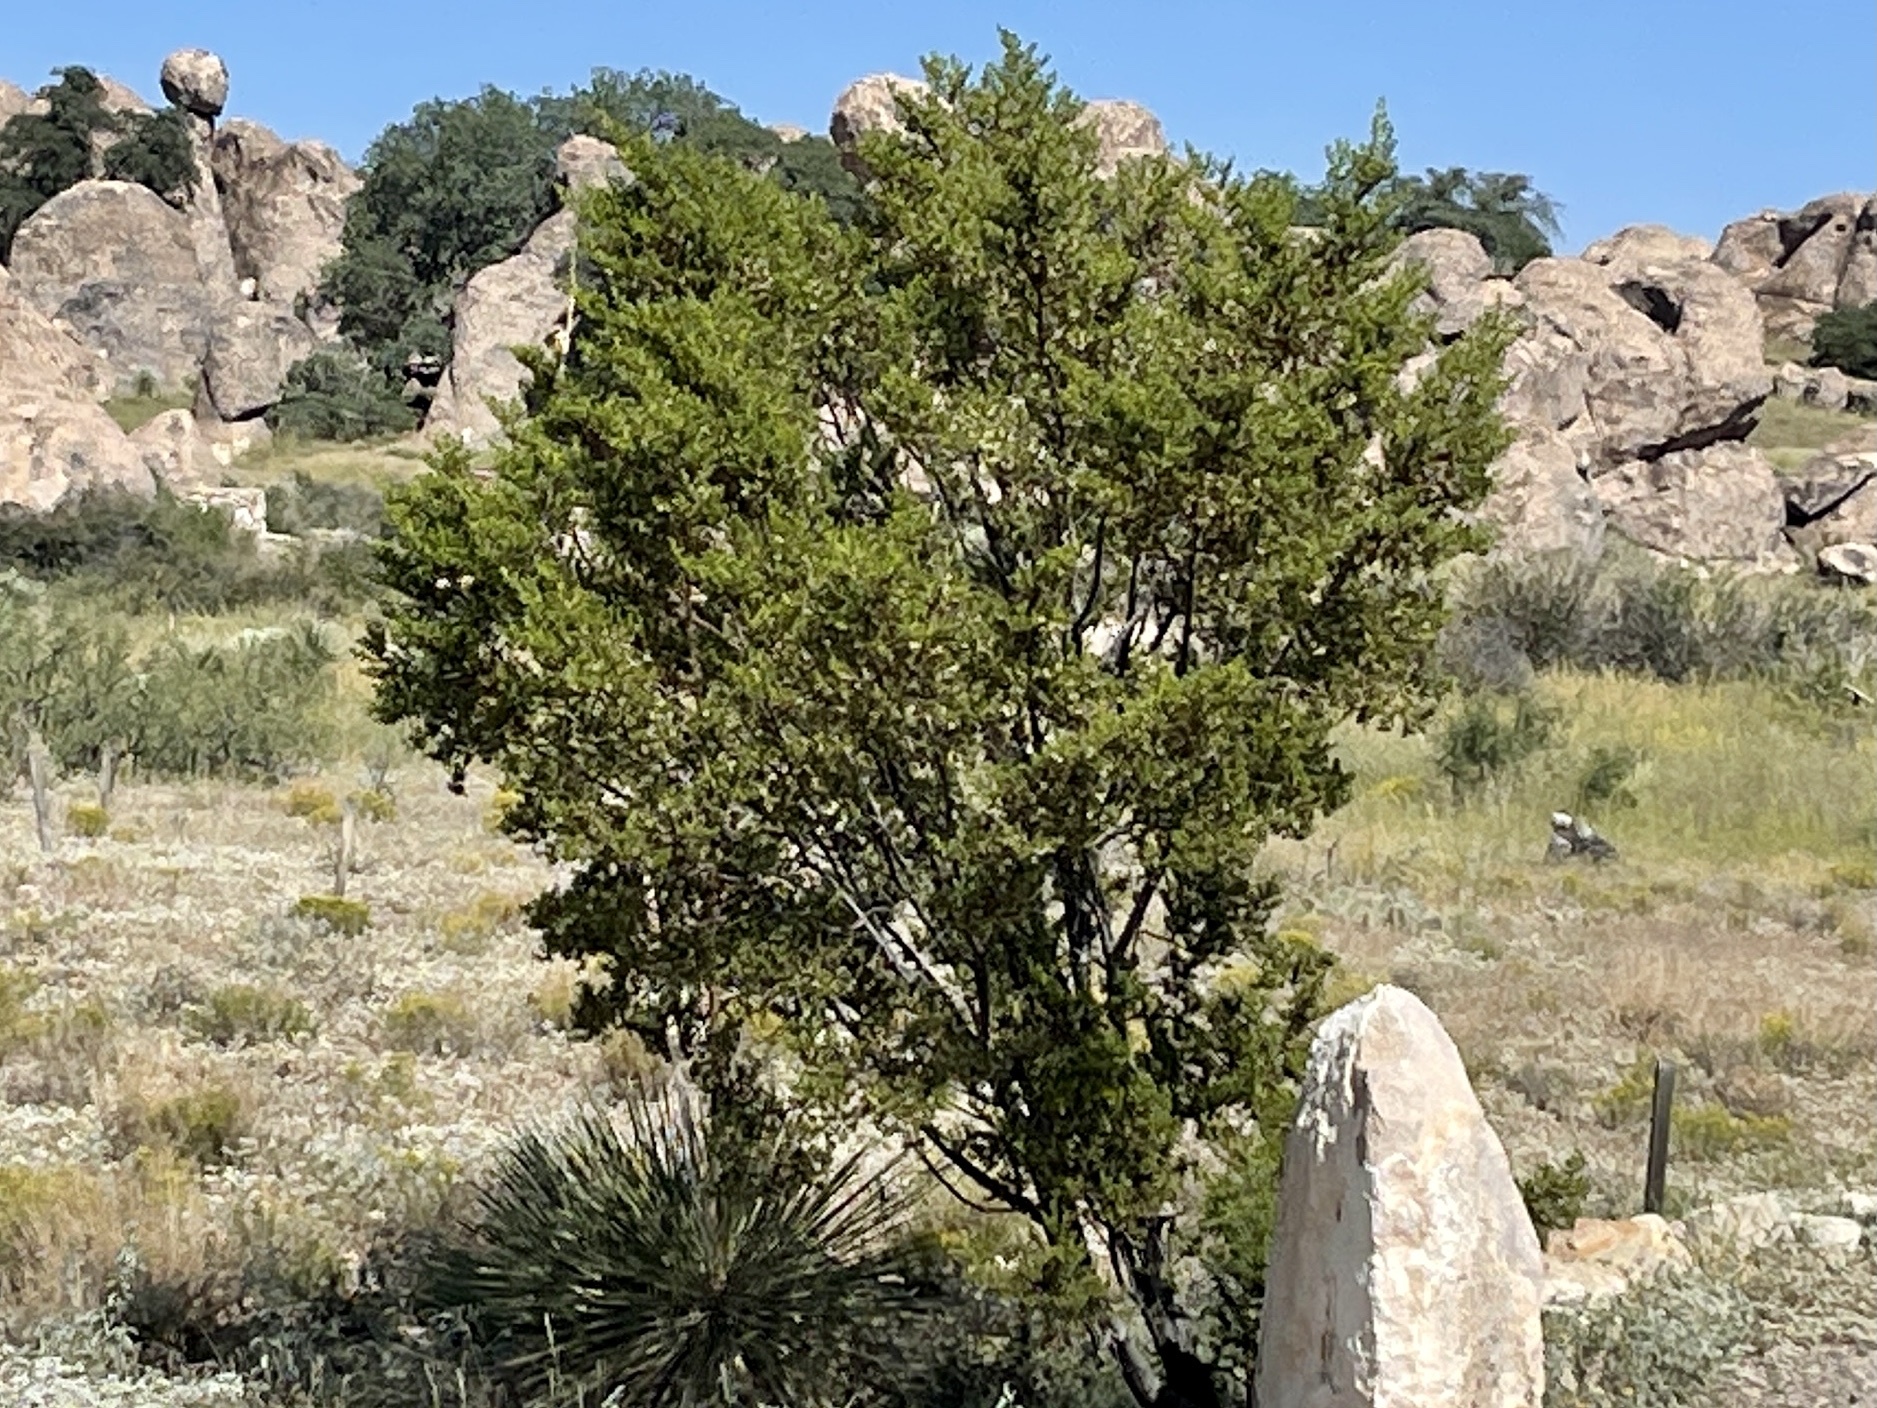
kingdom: Plantae
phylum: Tracheophyta
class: Magnoliopsida
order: Zygophyllales
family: Zygophyllaceae
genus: Larrea
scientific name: Larrea tridentata
